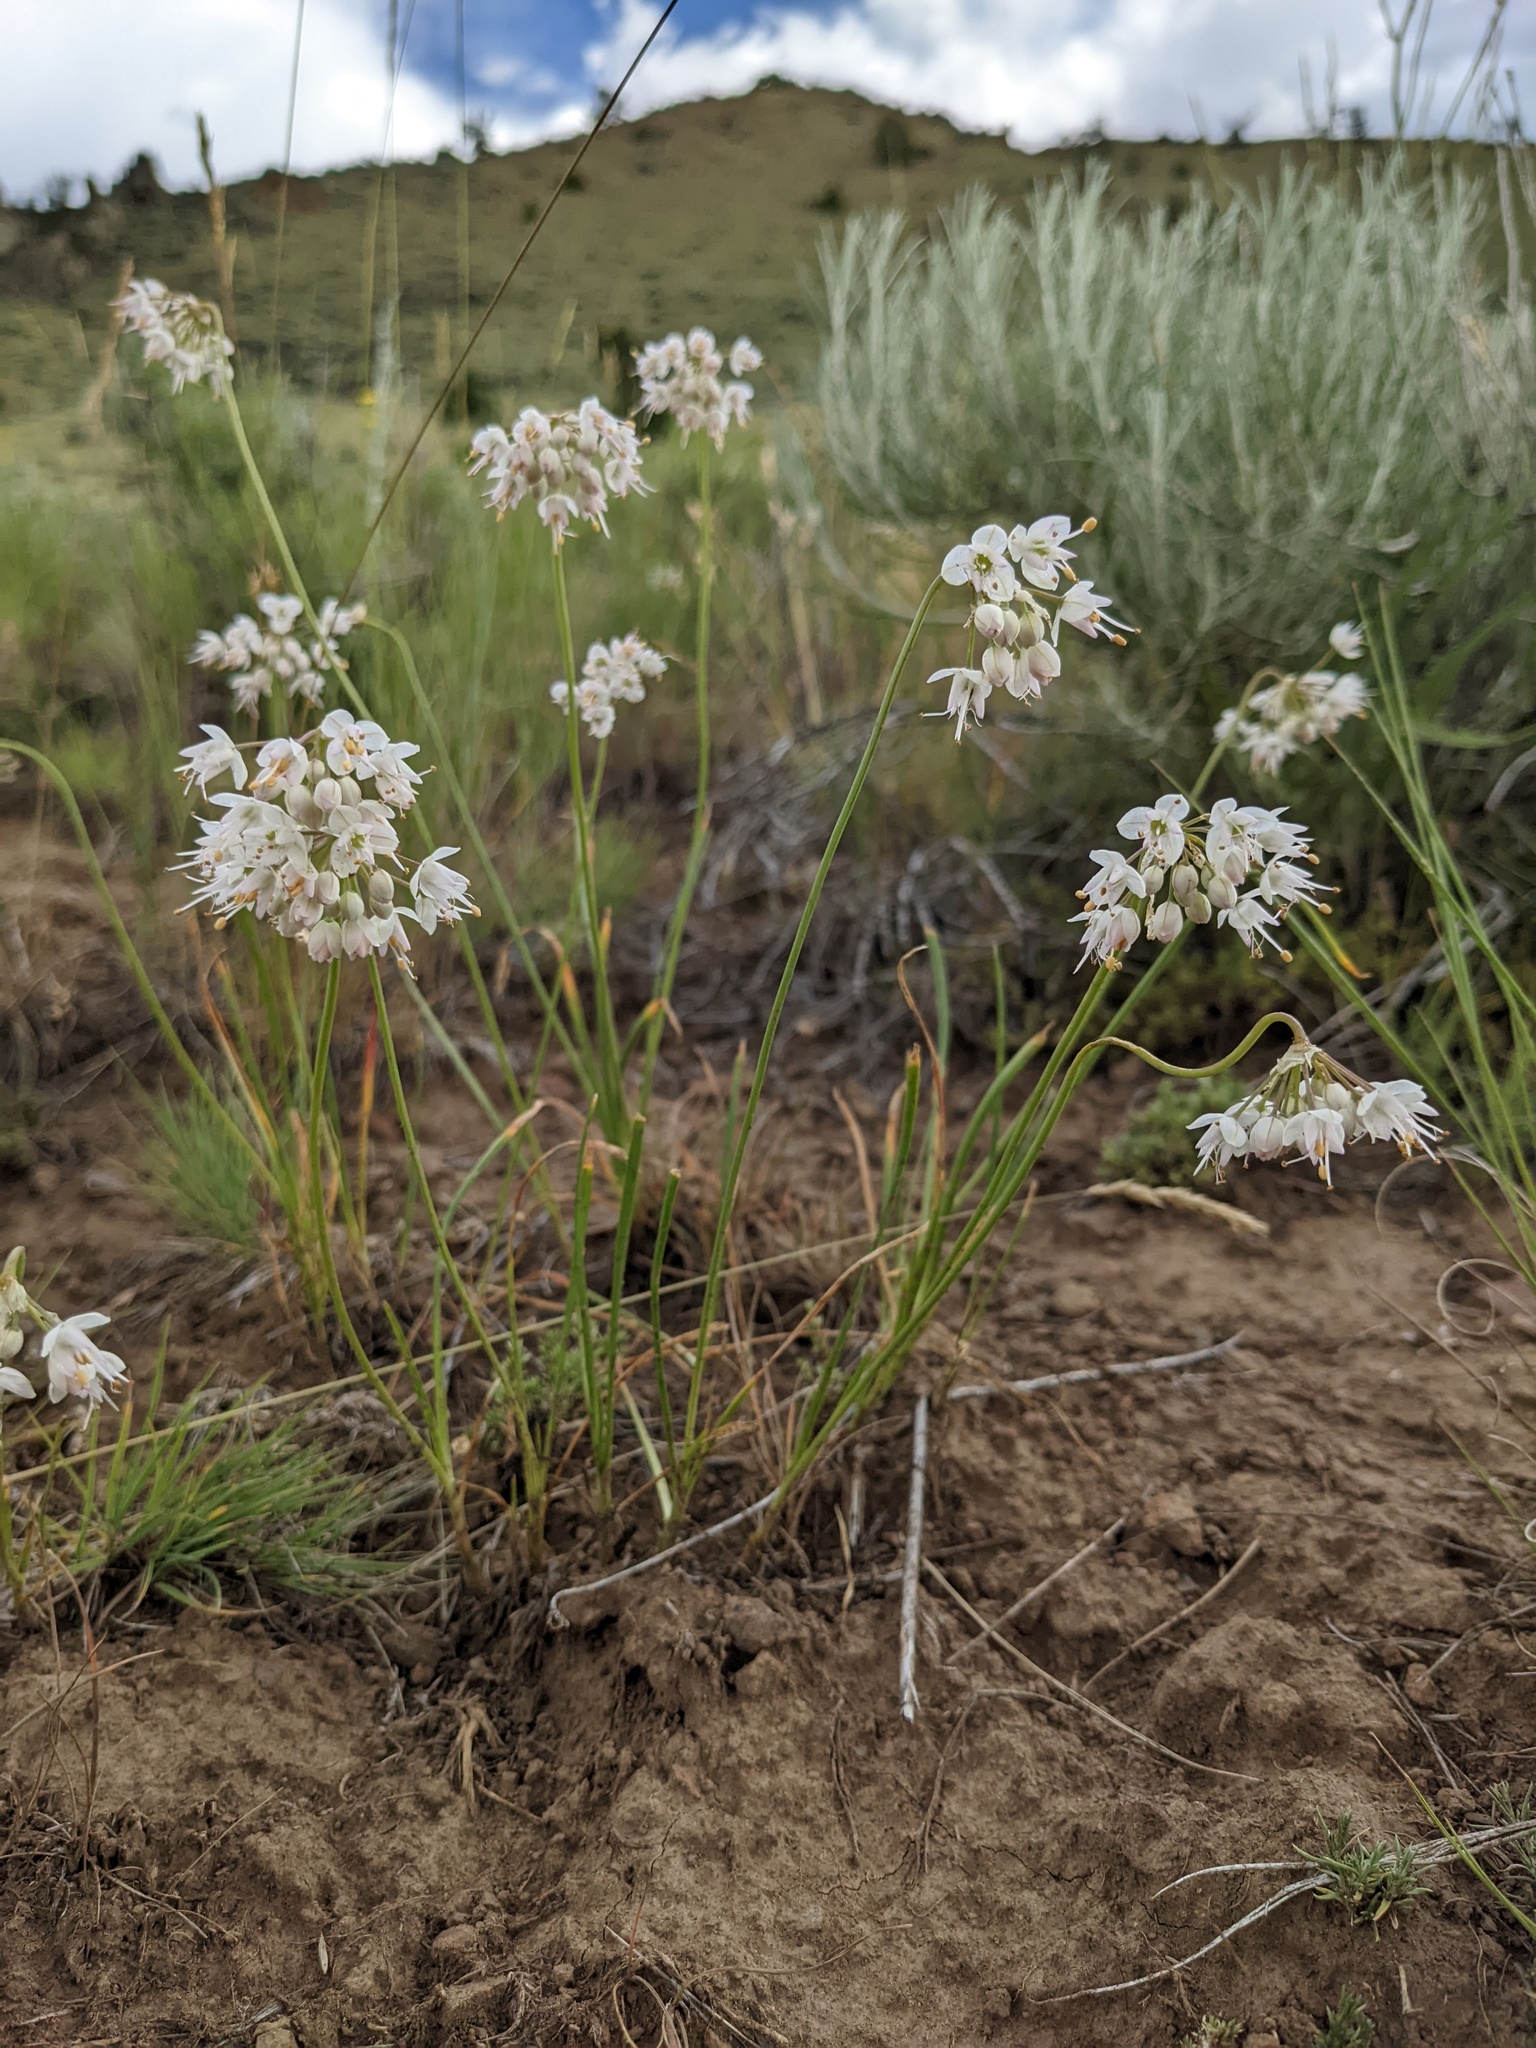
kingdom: Plantae
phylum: Tracheophyta
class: Liliopsida
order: Asparagales
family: Amaryllidaceae
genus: Allium
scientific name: Allium cernuum
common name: Nodding onion
